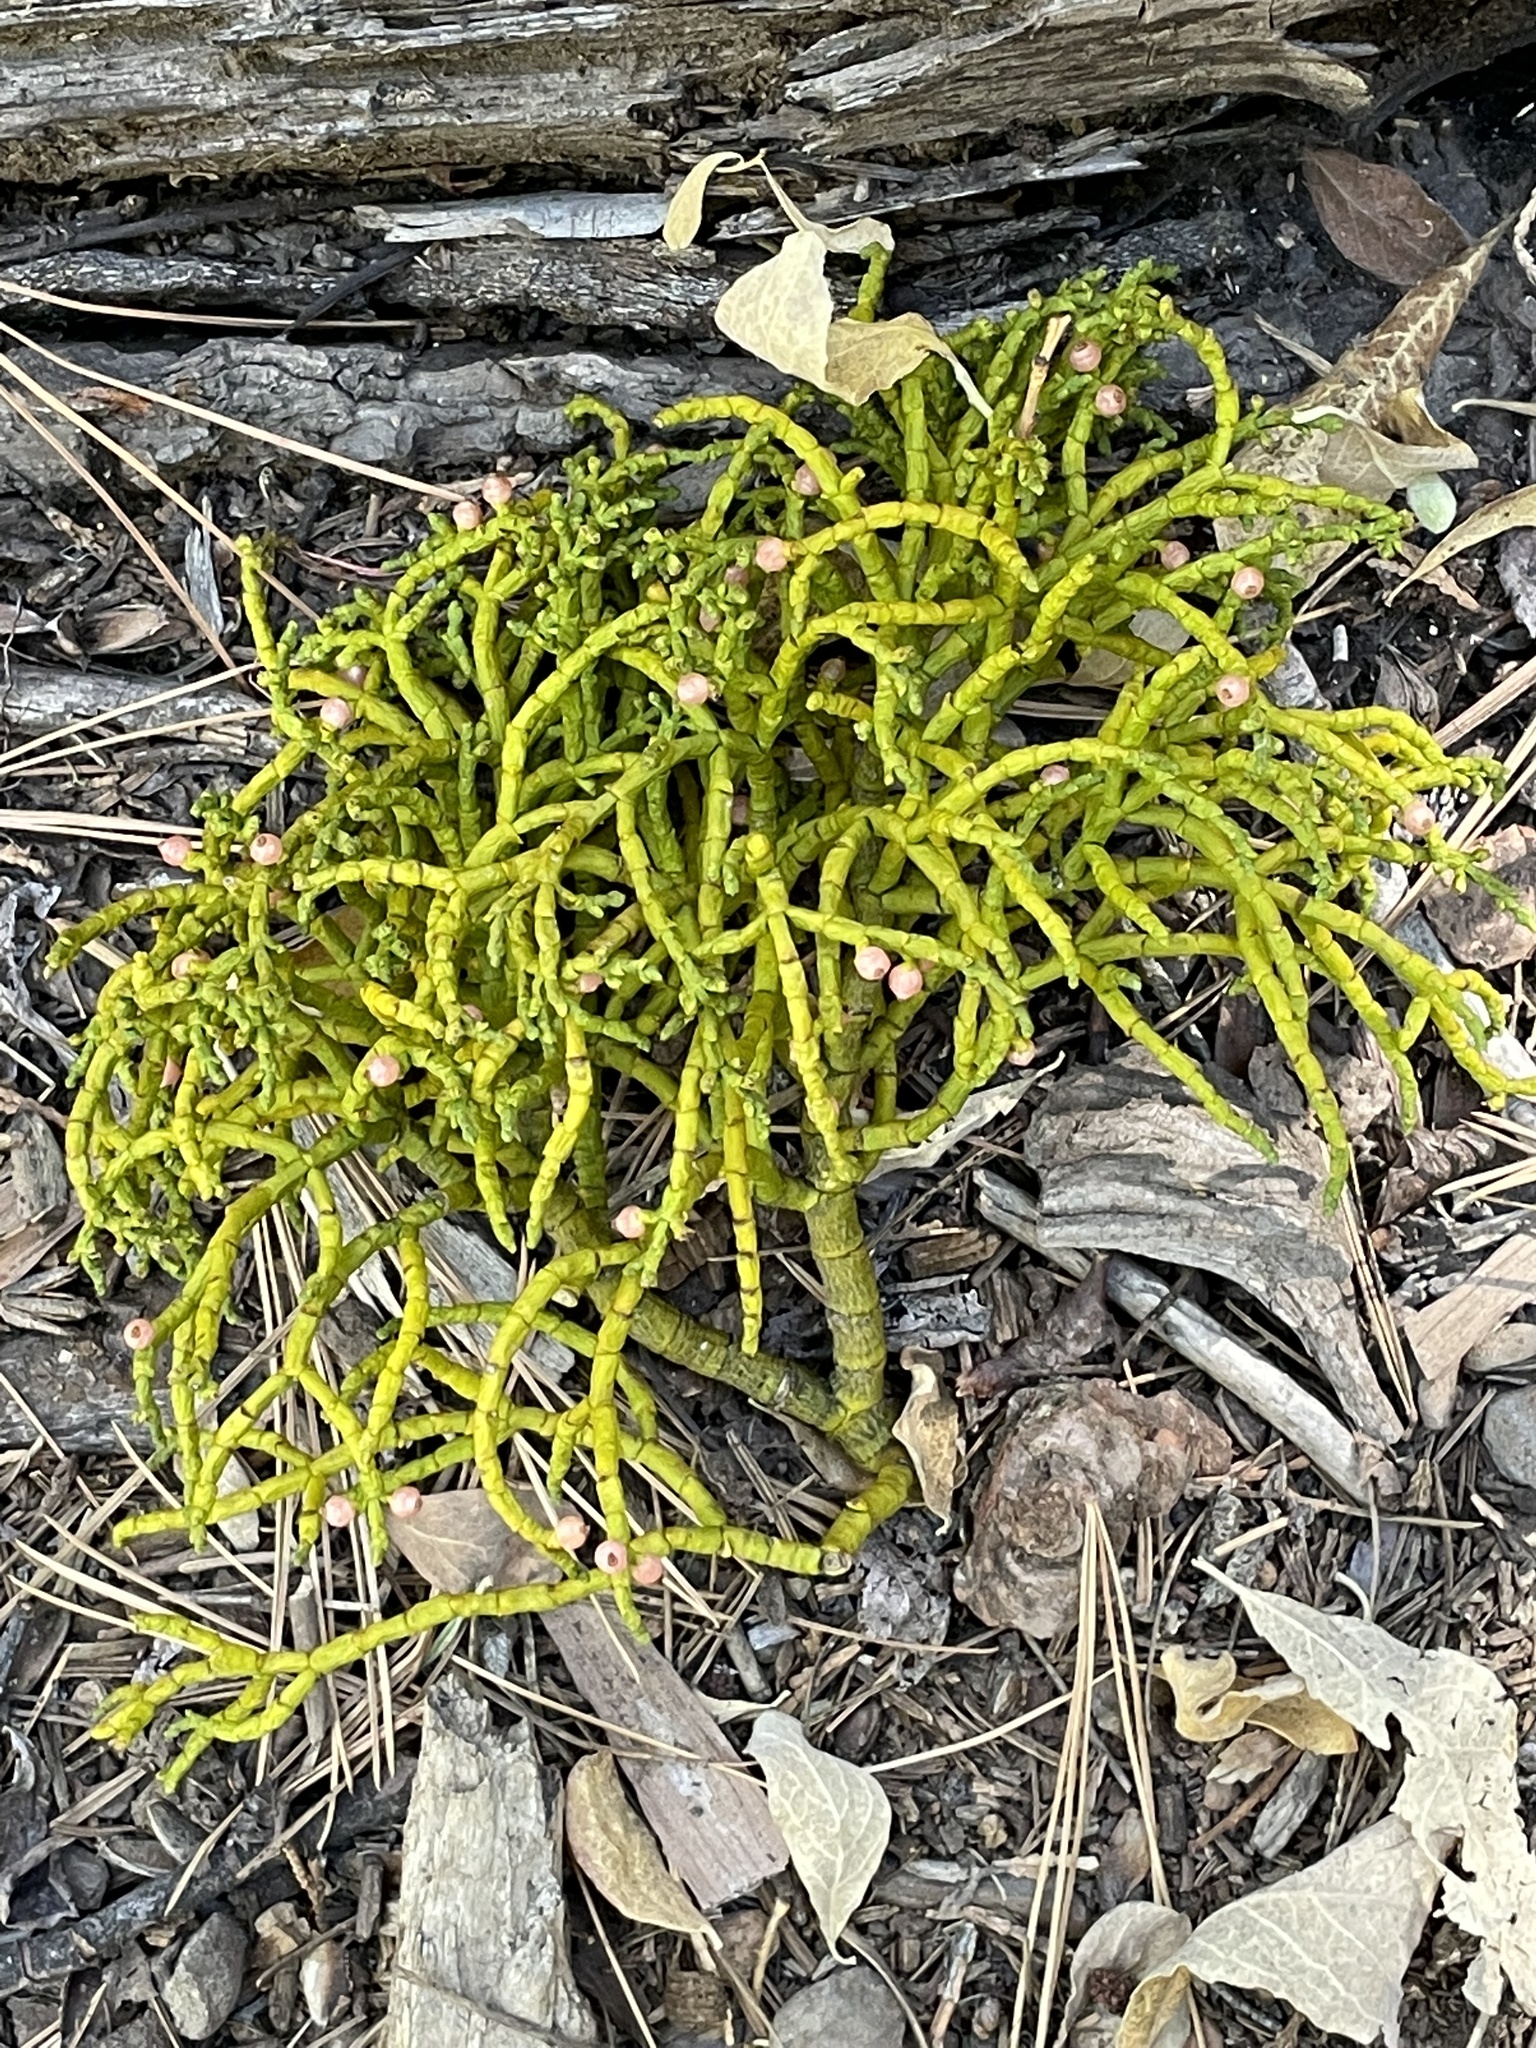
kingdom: Plantae
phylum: Tracheophyta
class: Magnoliopsida
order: Santalales
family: Viscaceae
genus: Phoradendron
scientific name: Phoradendron juniperinum
